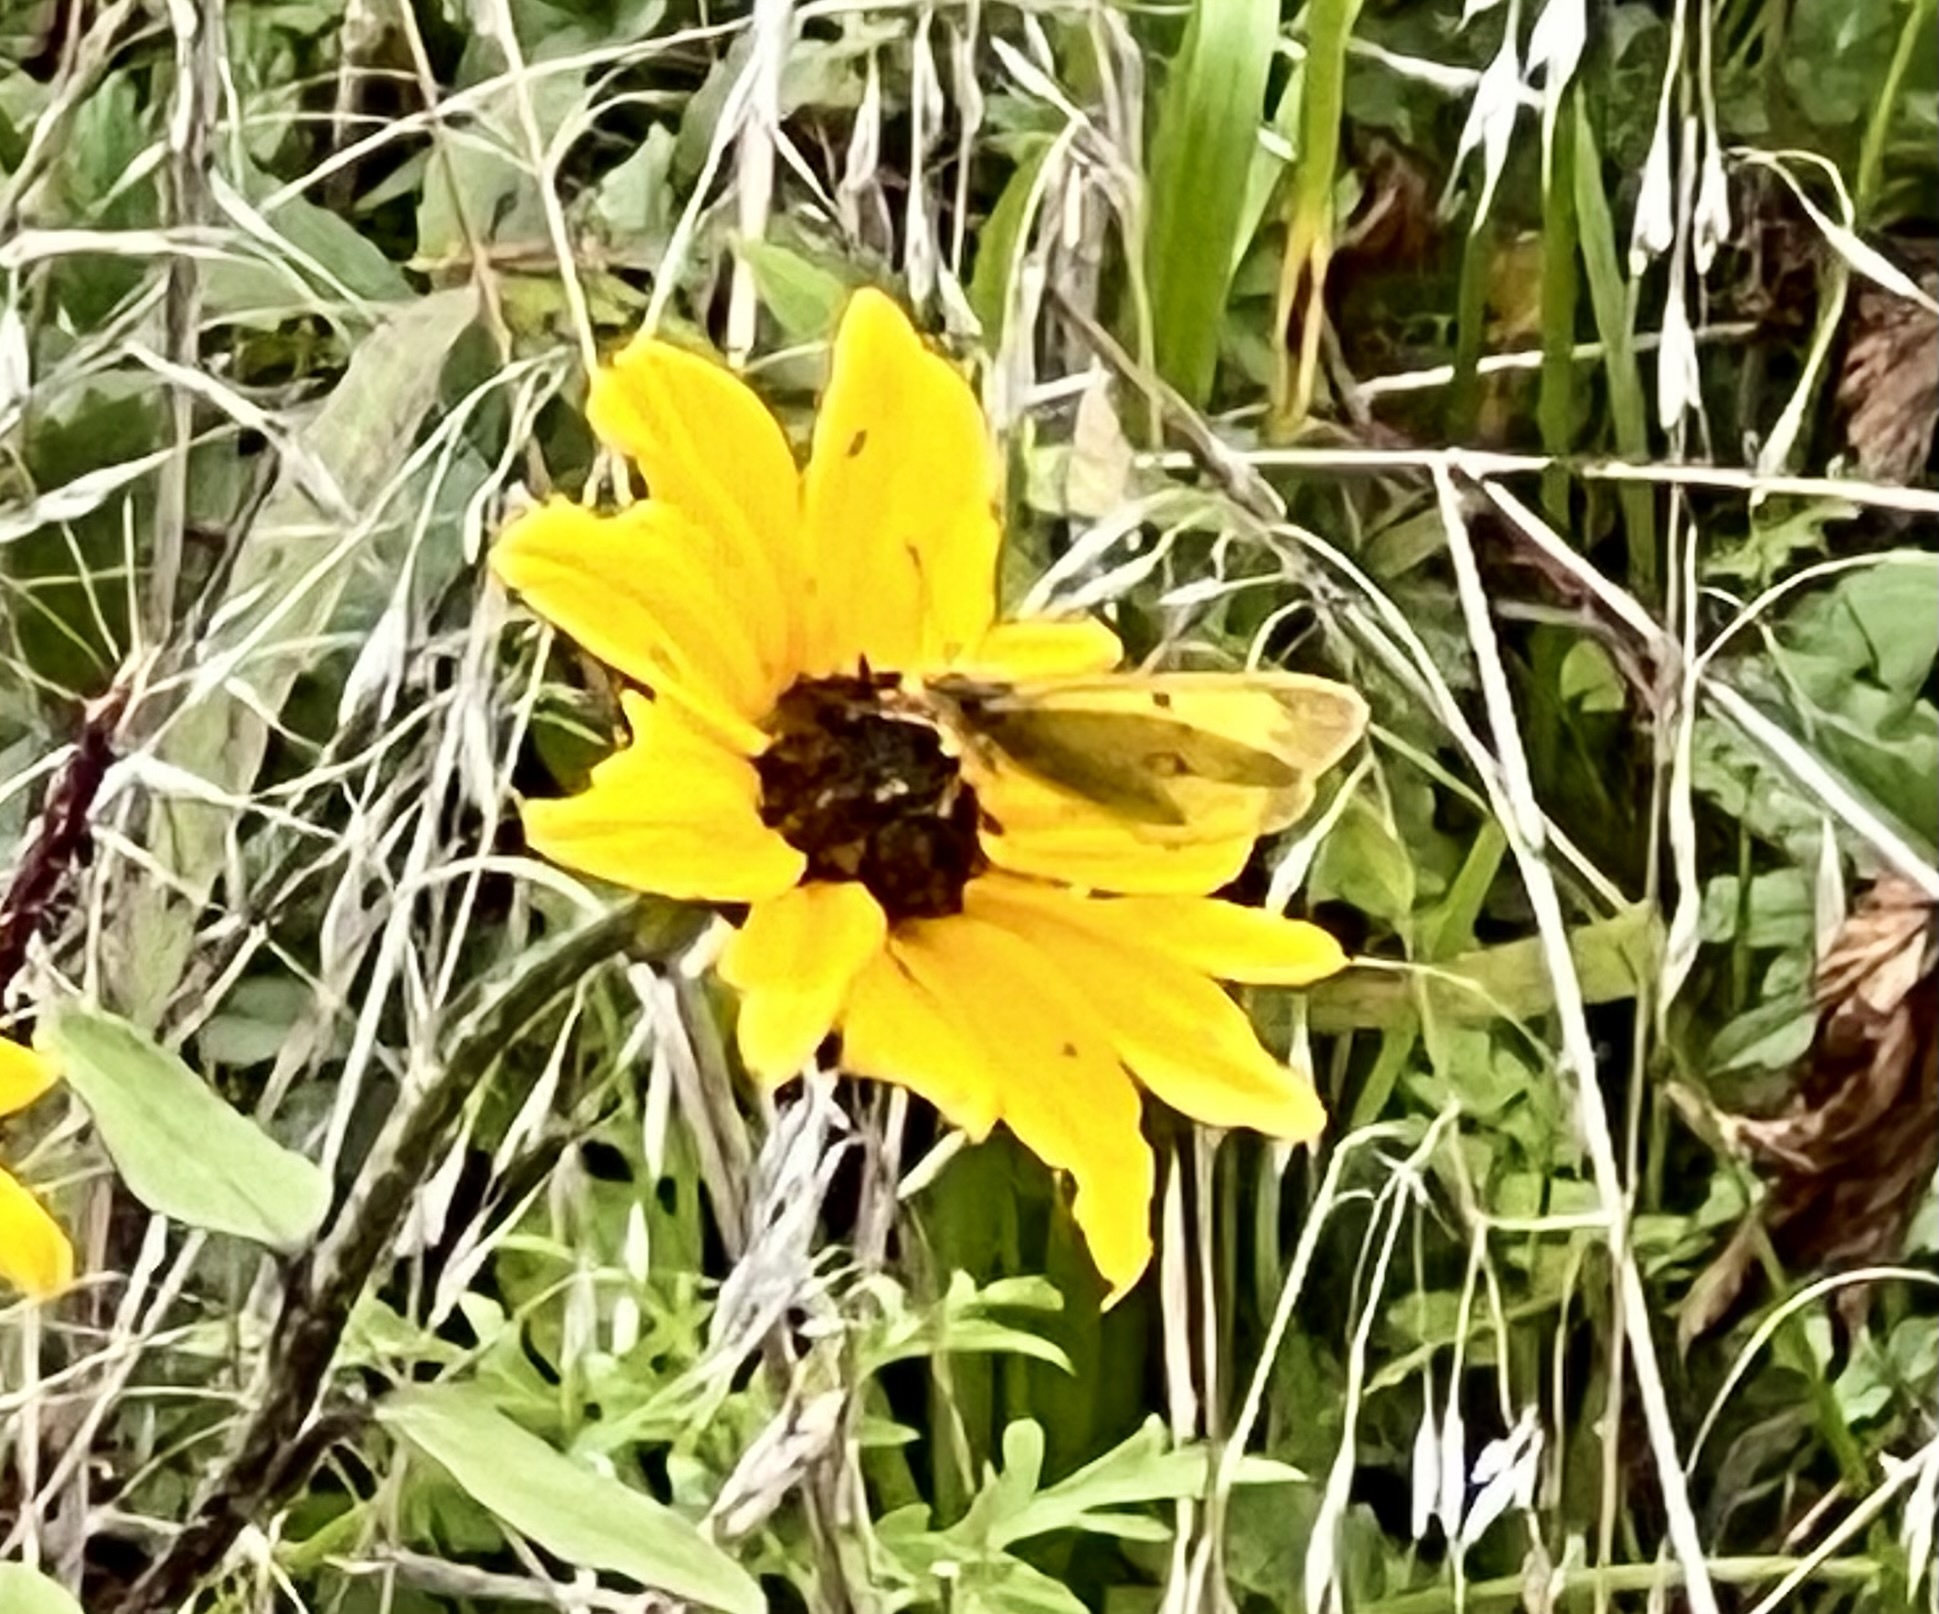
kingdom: Animalia
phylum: Arthropoda
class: Insecta
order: Lepidoptera
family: Pieridae
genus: Colias
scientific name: Colias eurytheme
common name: Alfalfa butterfly
